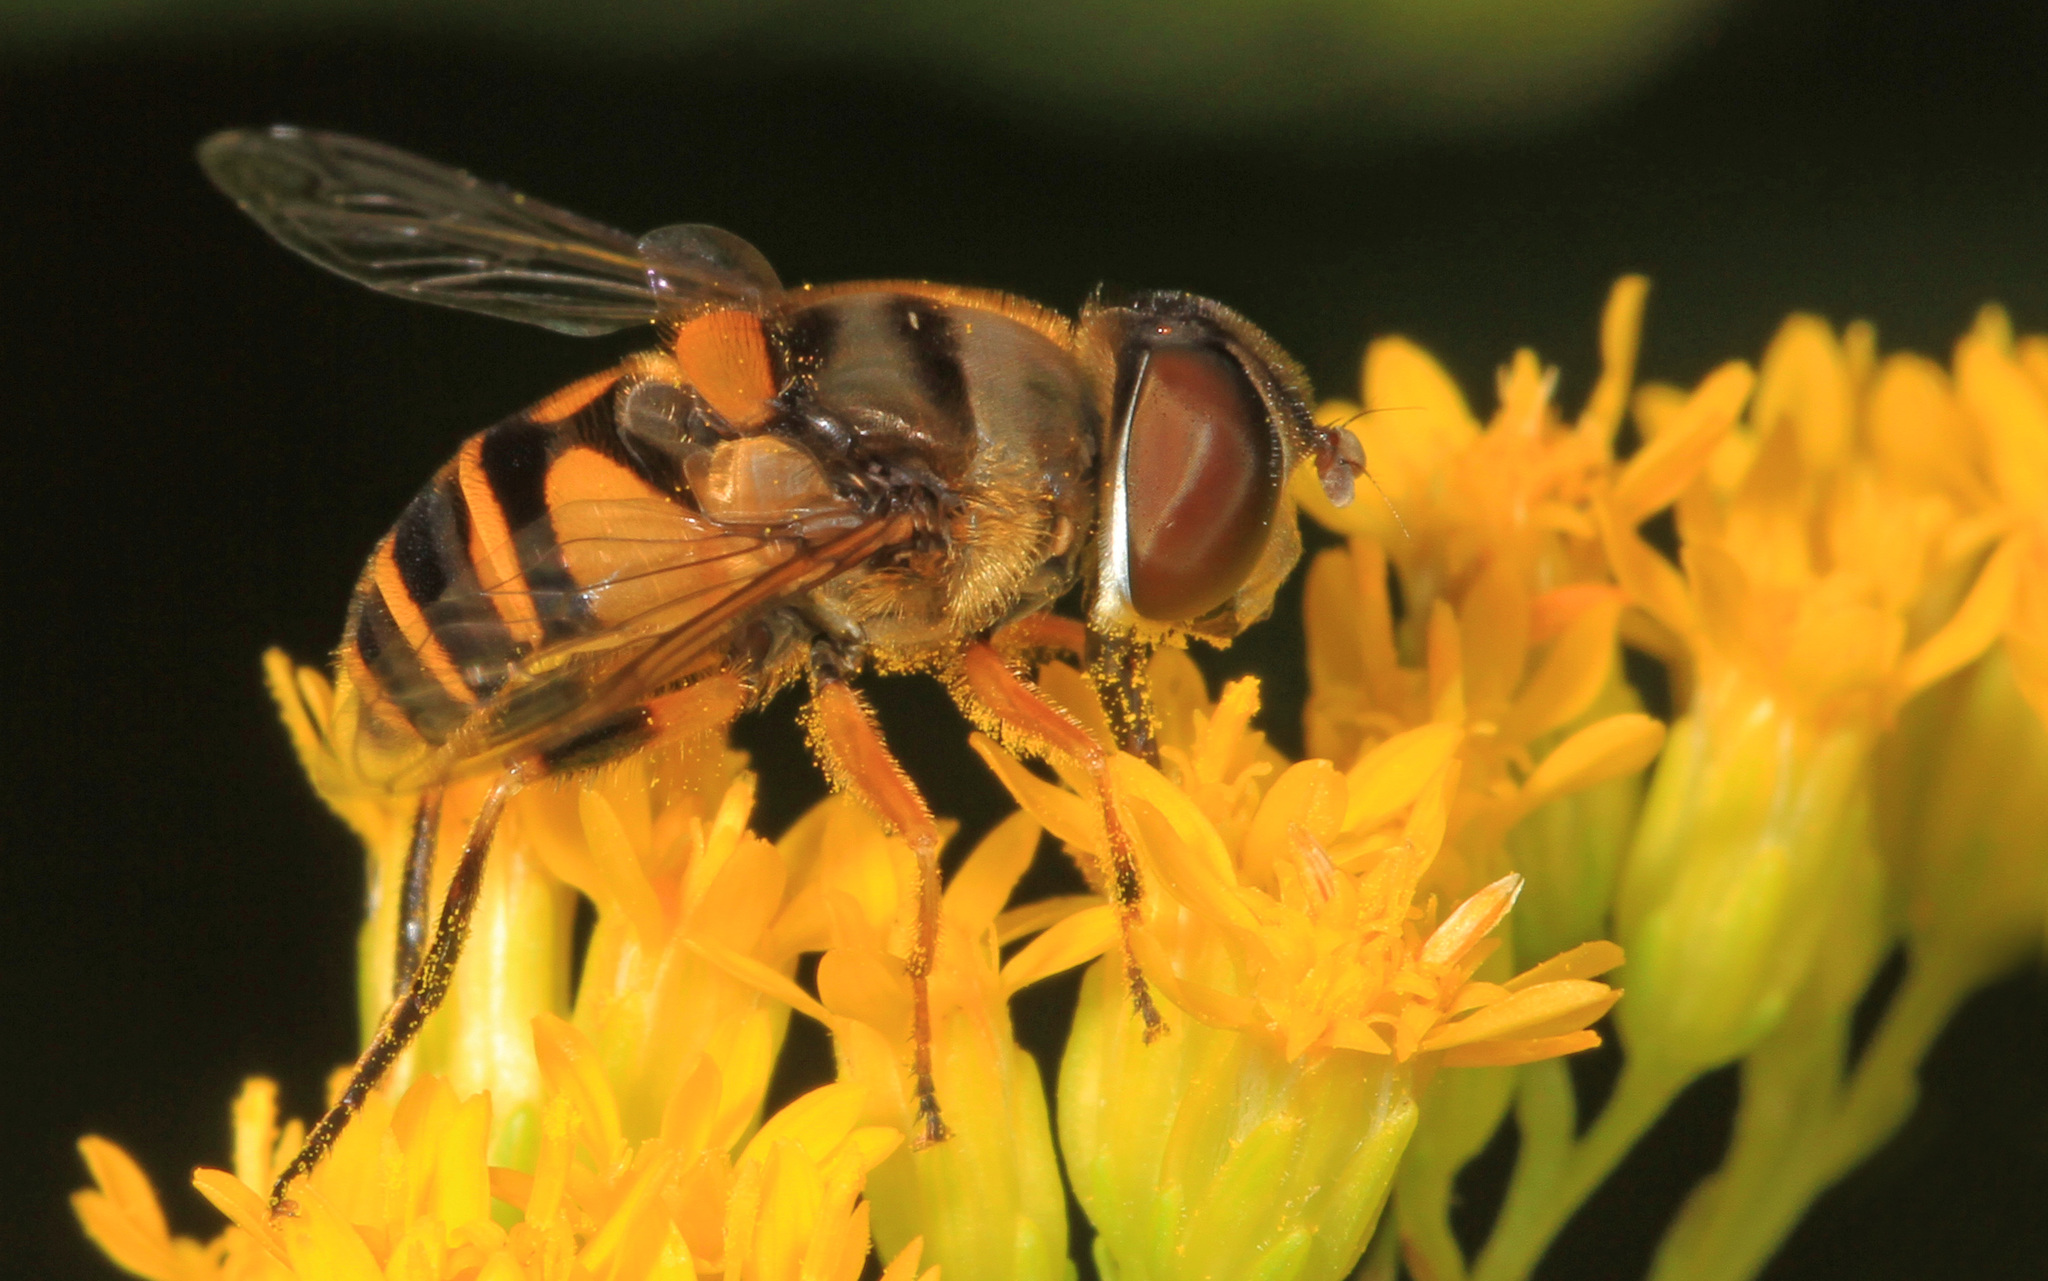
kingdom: Animalia
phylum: Arthropoda
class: Insecta
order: Diptera
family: Syrphidae
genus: Eristalis
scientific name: Eristalis transversa
